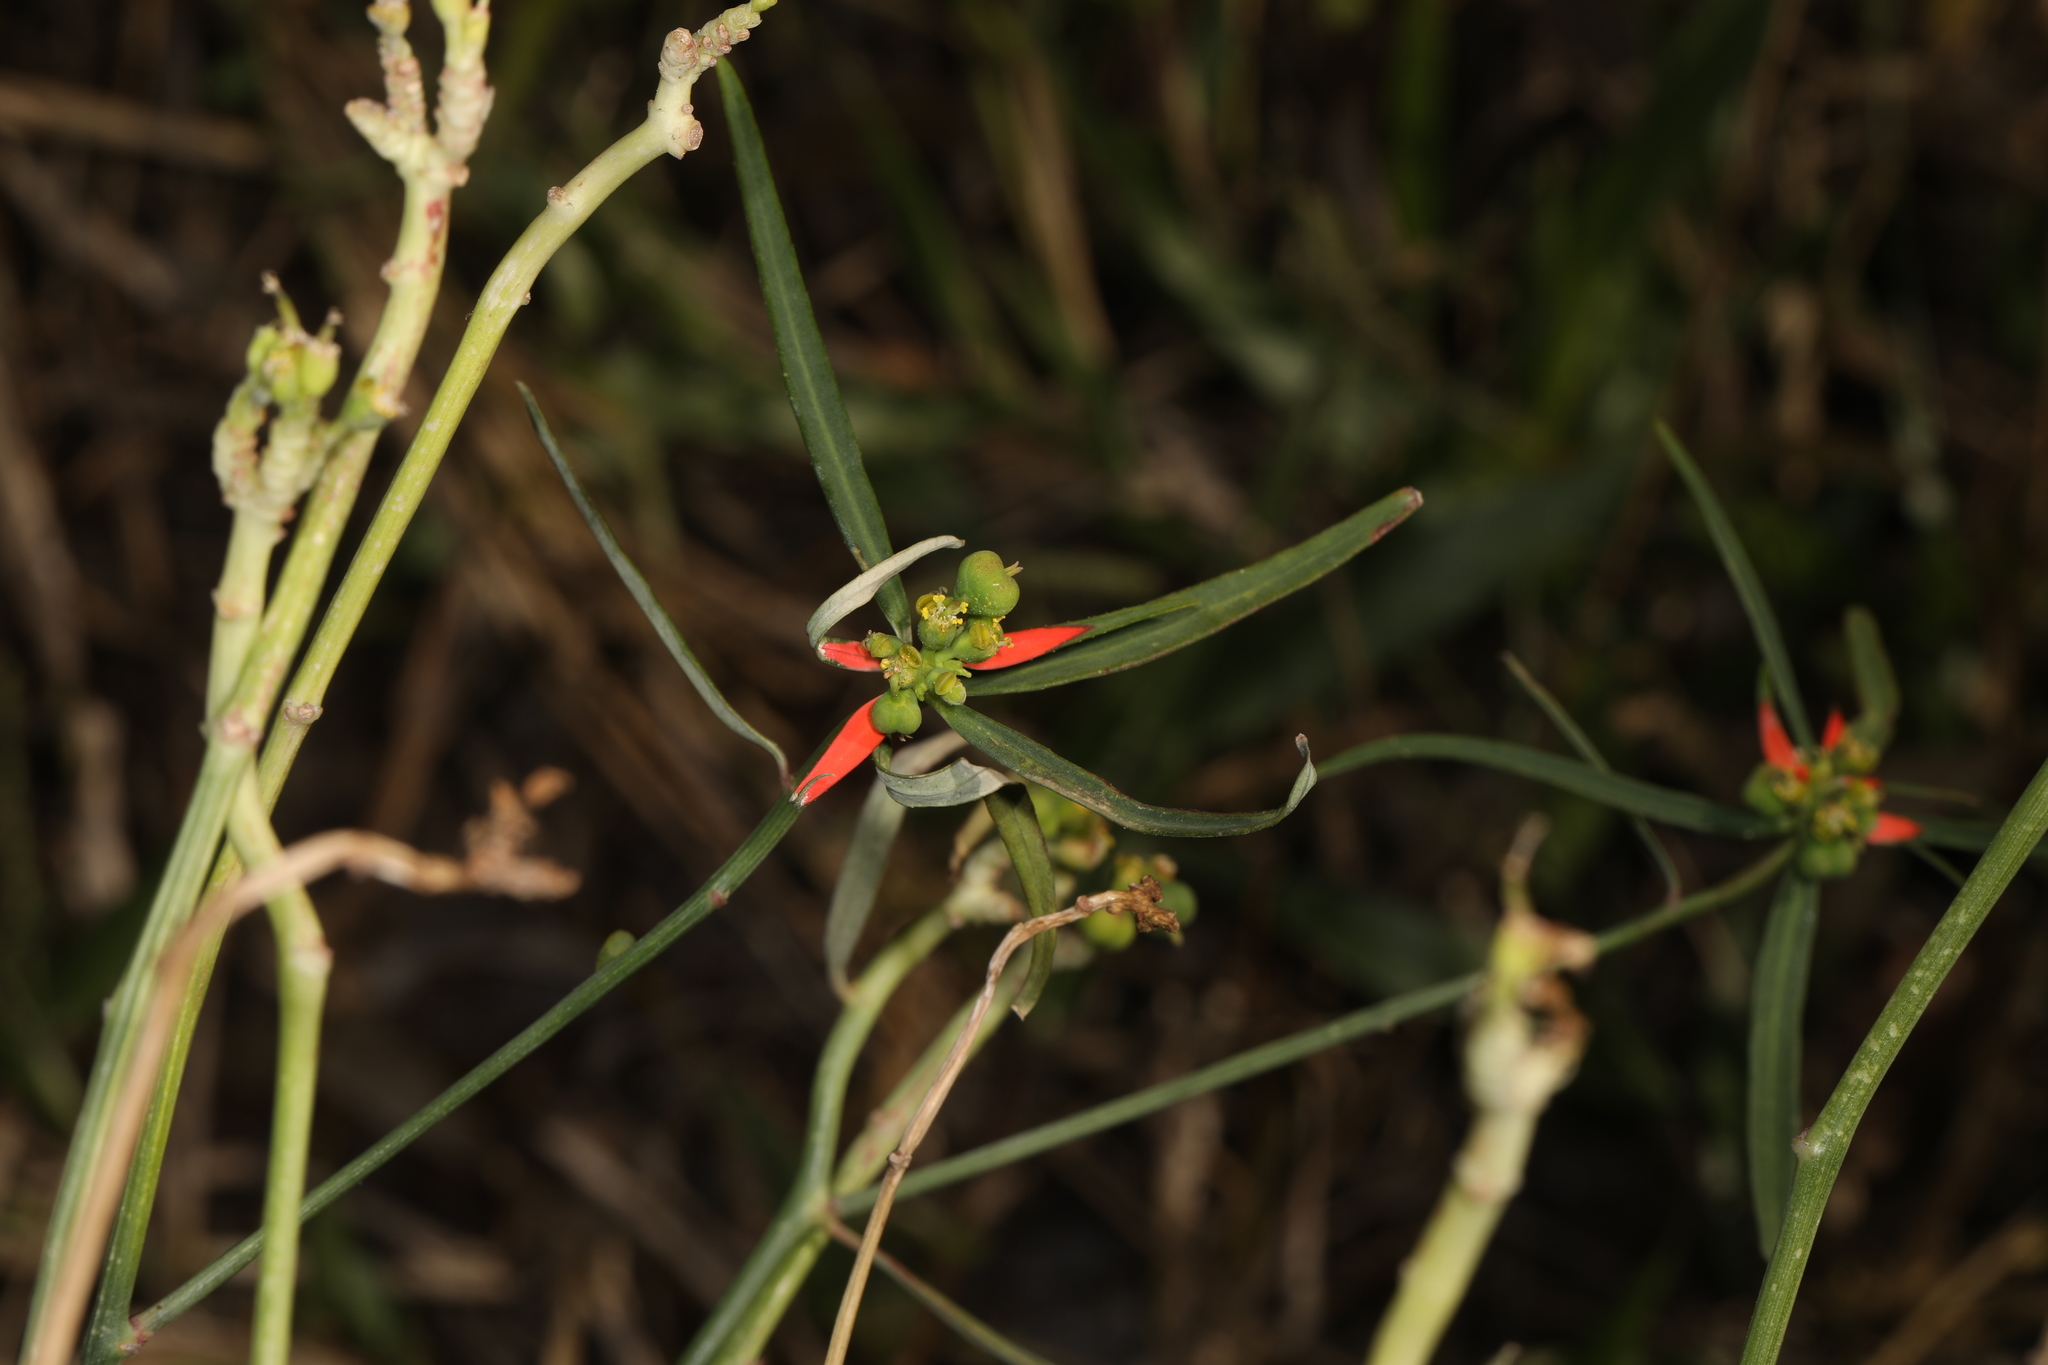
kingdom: Plantae
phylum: Tracheophyta
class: Magnoliopsida
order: Malpighiales
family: Euphorbiaceae
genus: Euphorbia
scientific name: Euphorbia heterophylla
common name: Mexican fireplant
